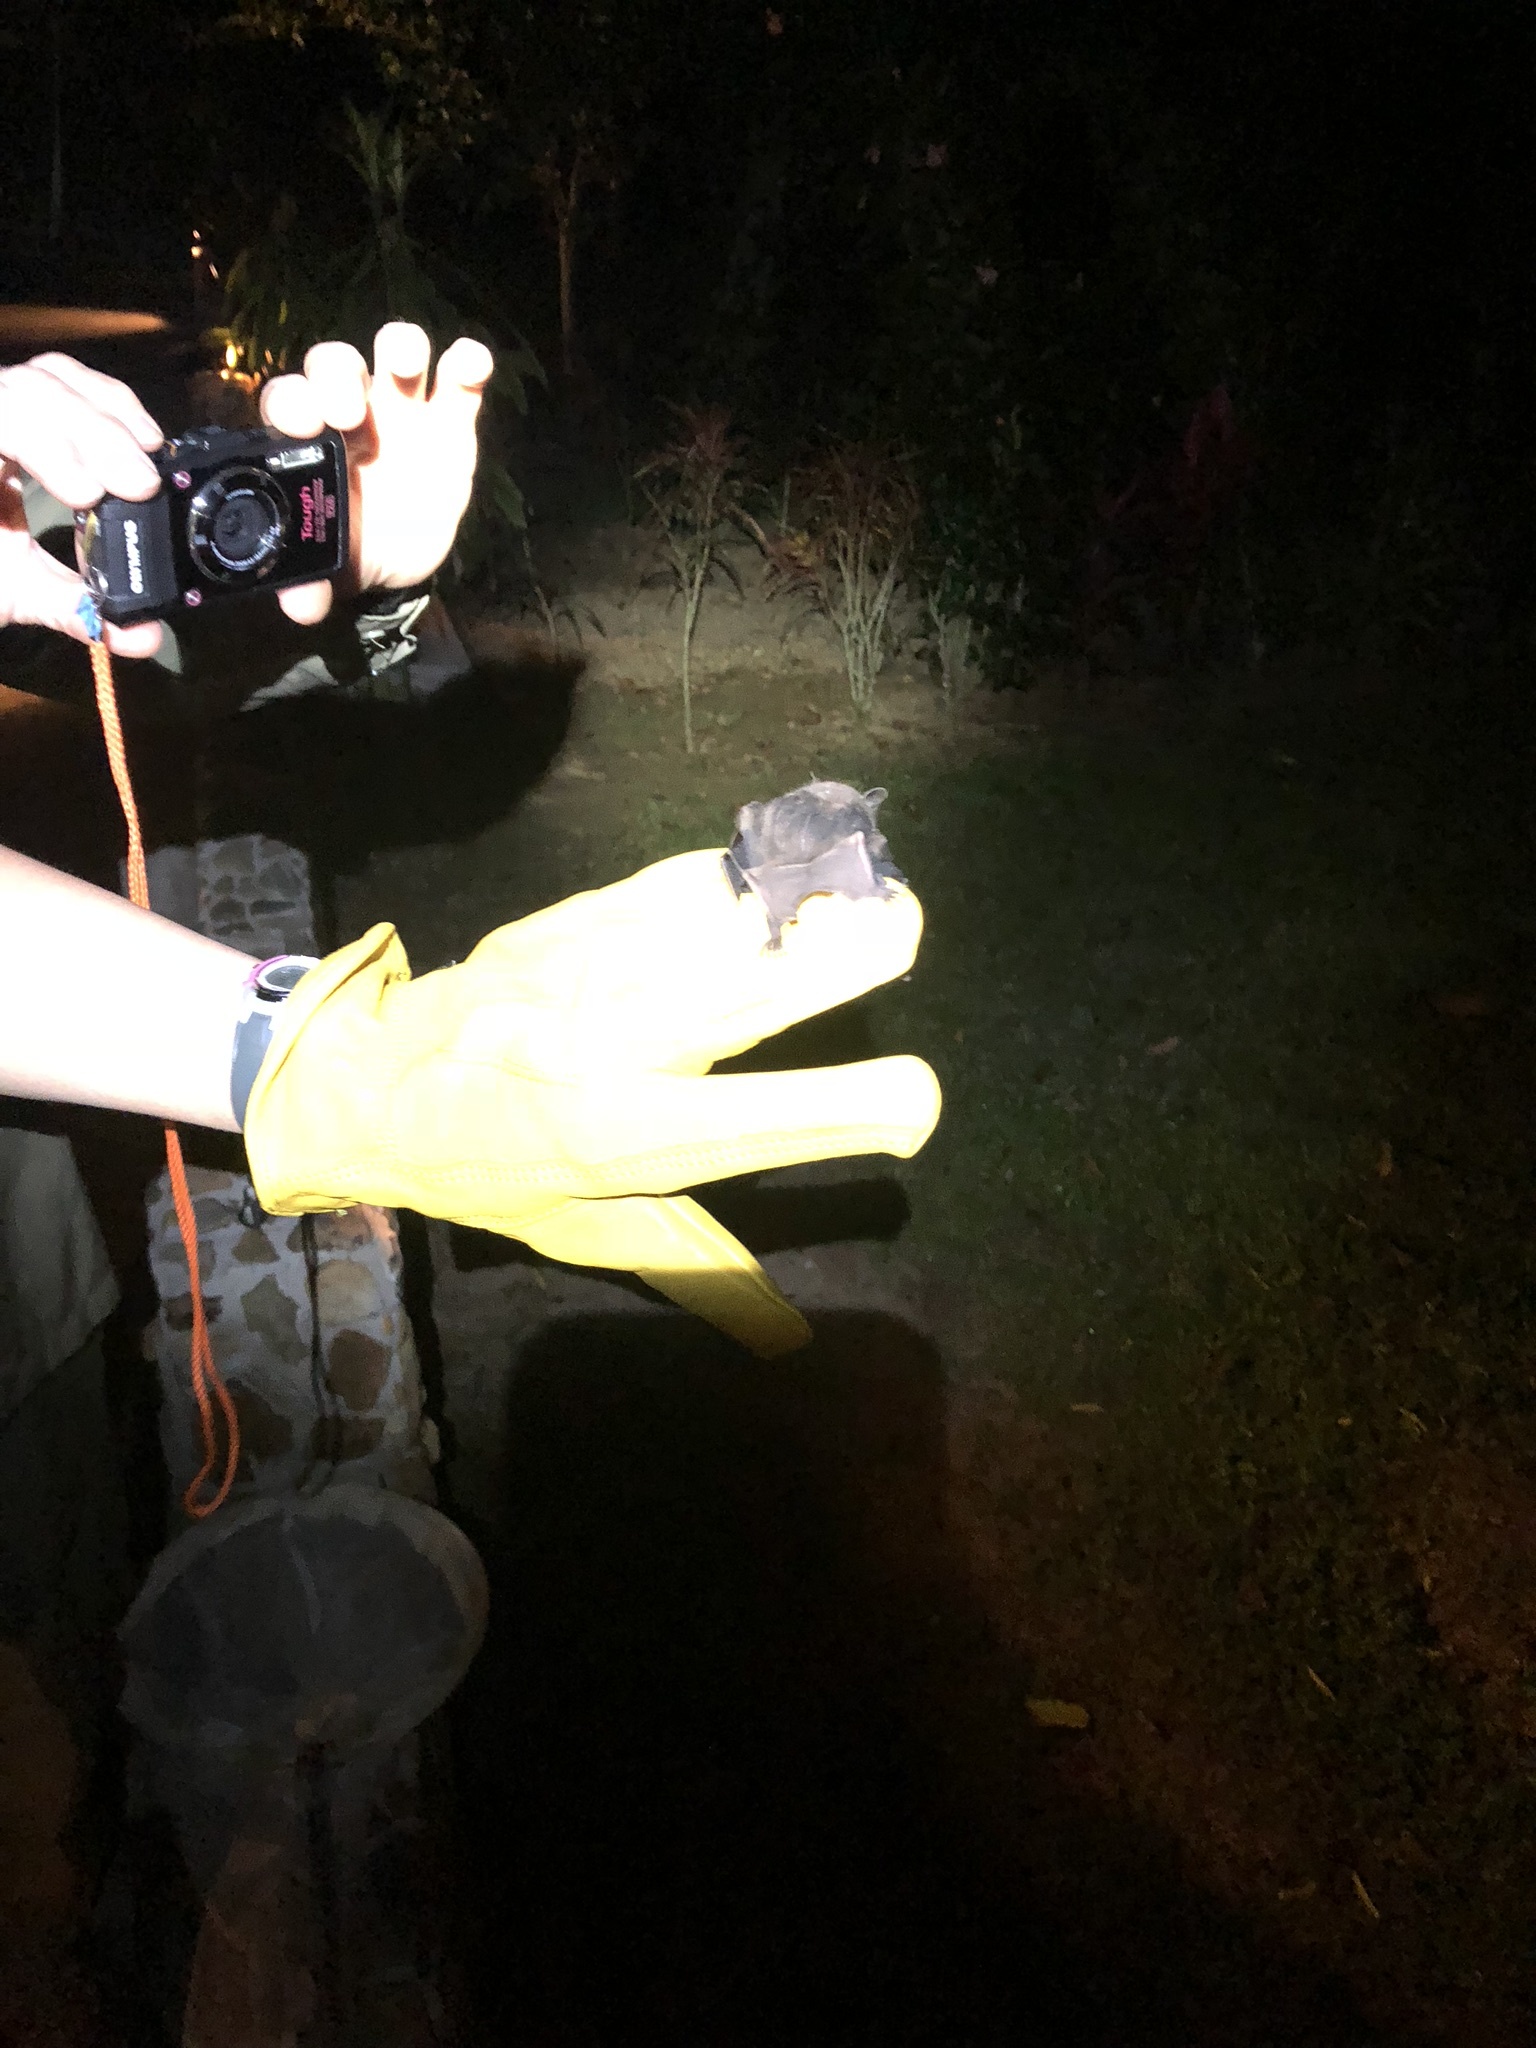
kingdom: Animalia
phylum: Chordata
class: Mammalia
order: Chiroptera
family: Phyllostomidae
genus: Uroderma
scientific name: Uroderma bilobatum
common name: Common tent-making bat
